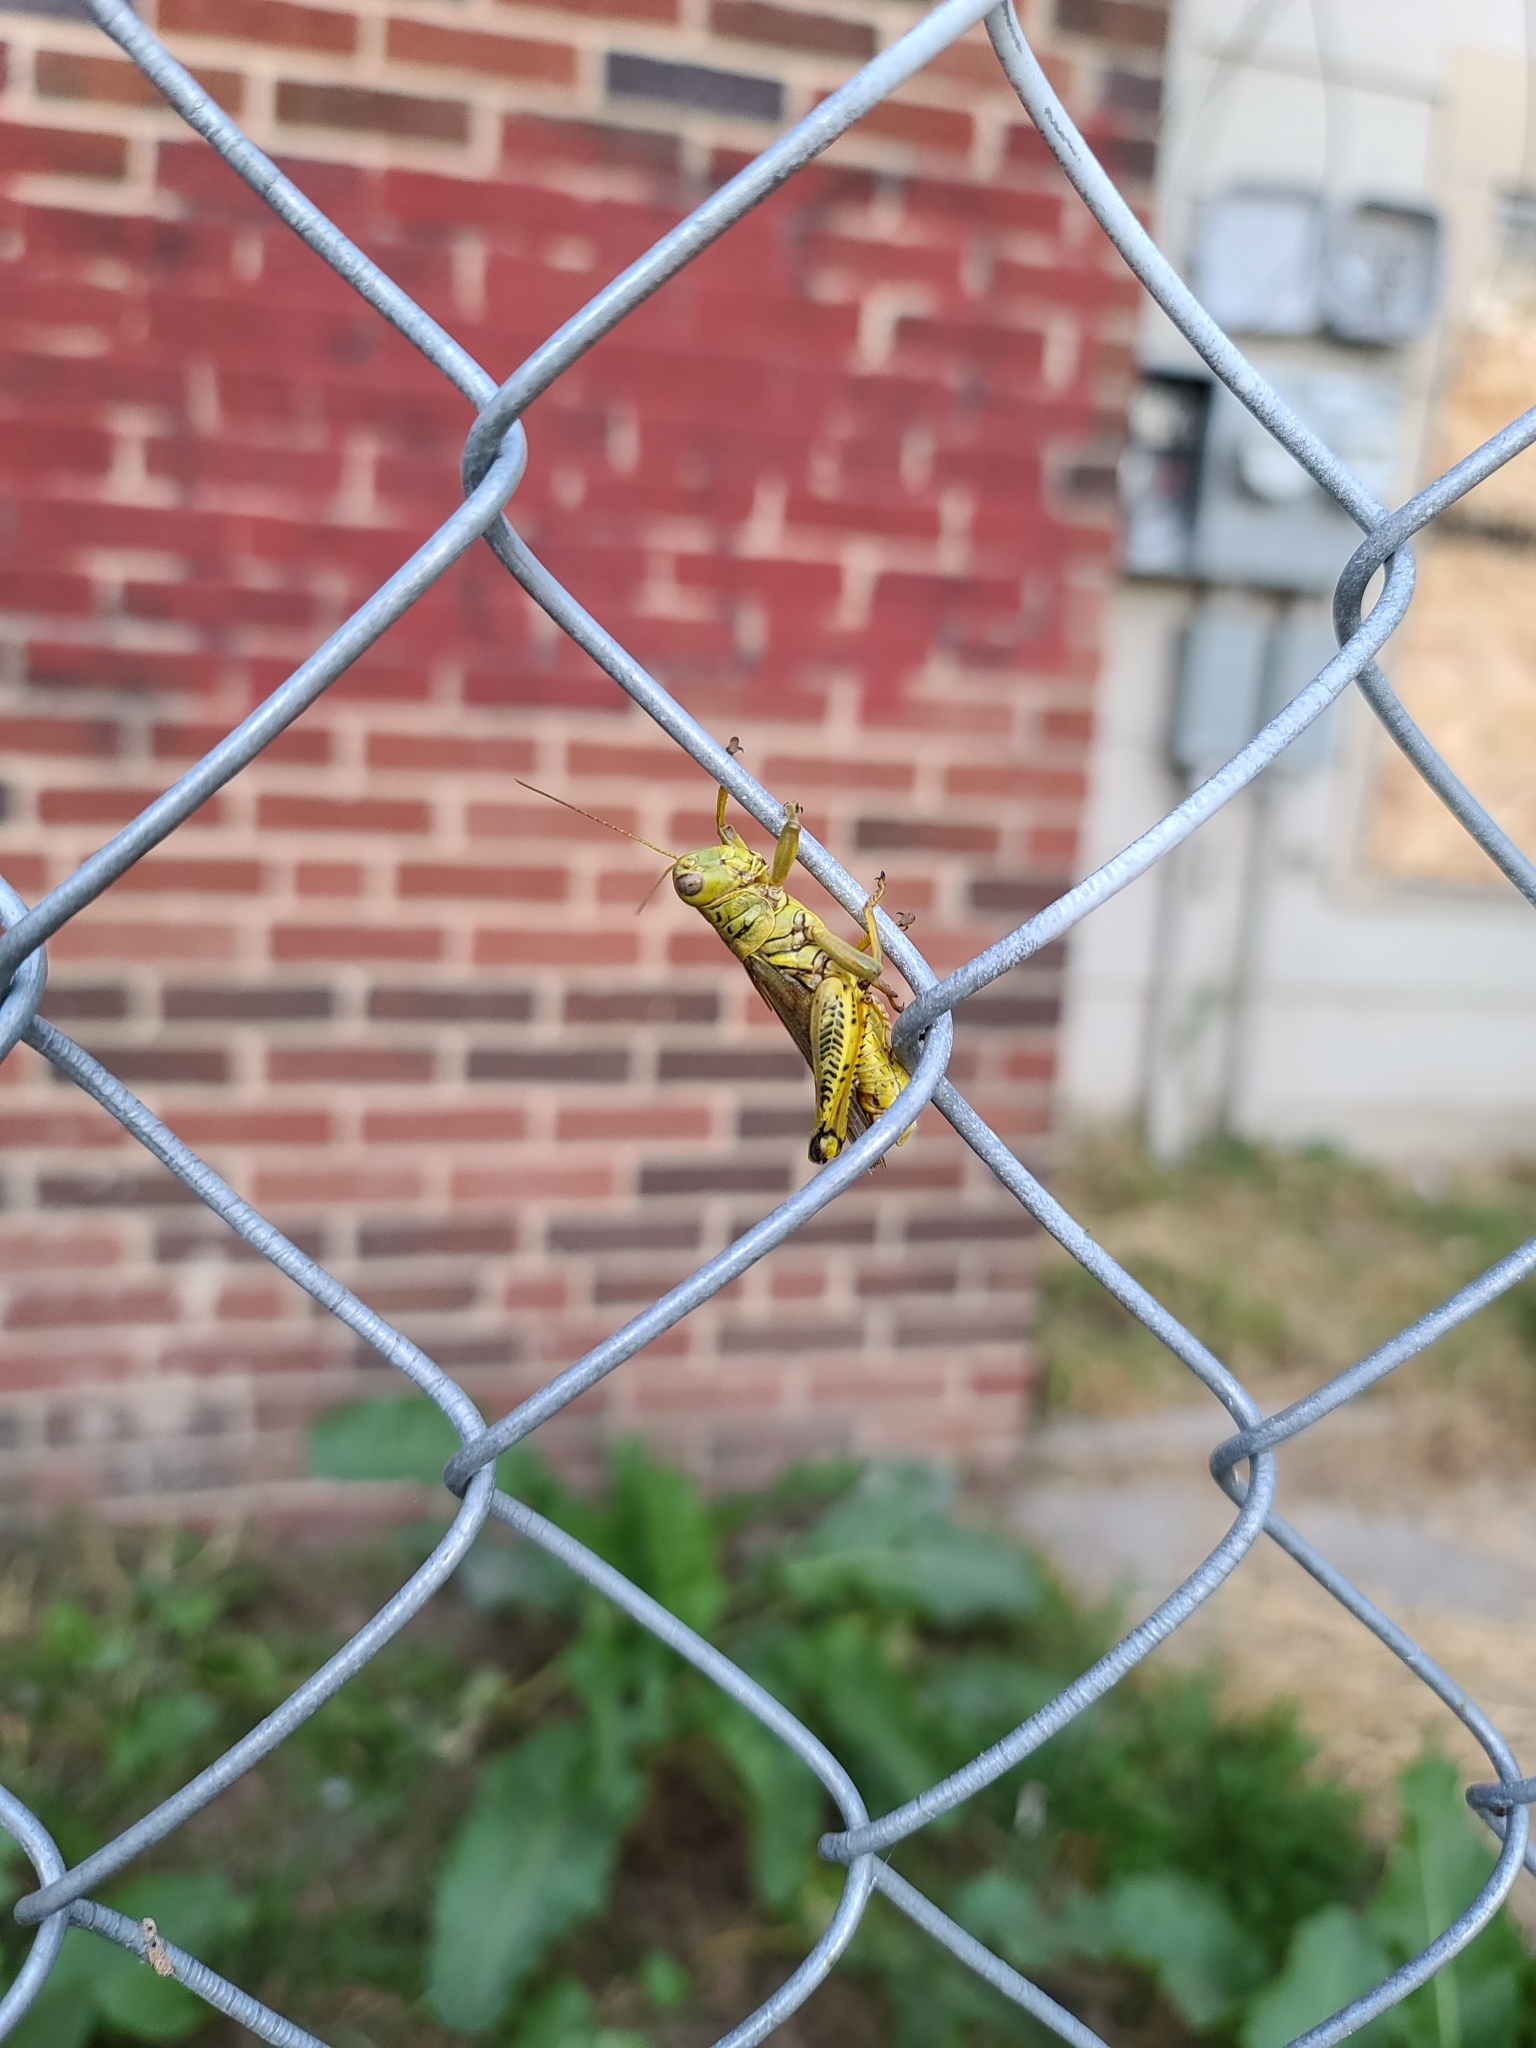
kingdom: Animalia
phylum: Arthropoda
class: Insecta
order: Orthoptera
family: Acrididae
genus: Melanoplus
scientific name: Melanoplus differentialis
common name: Differential grasshopper
